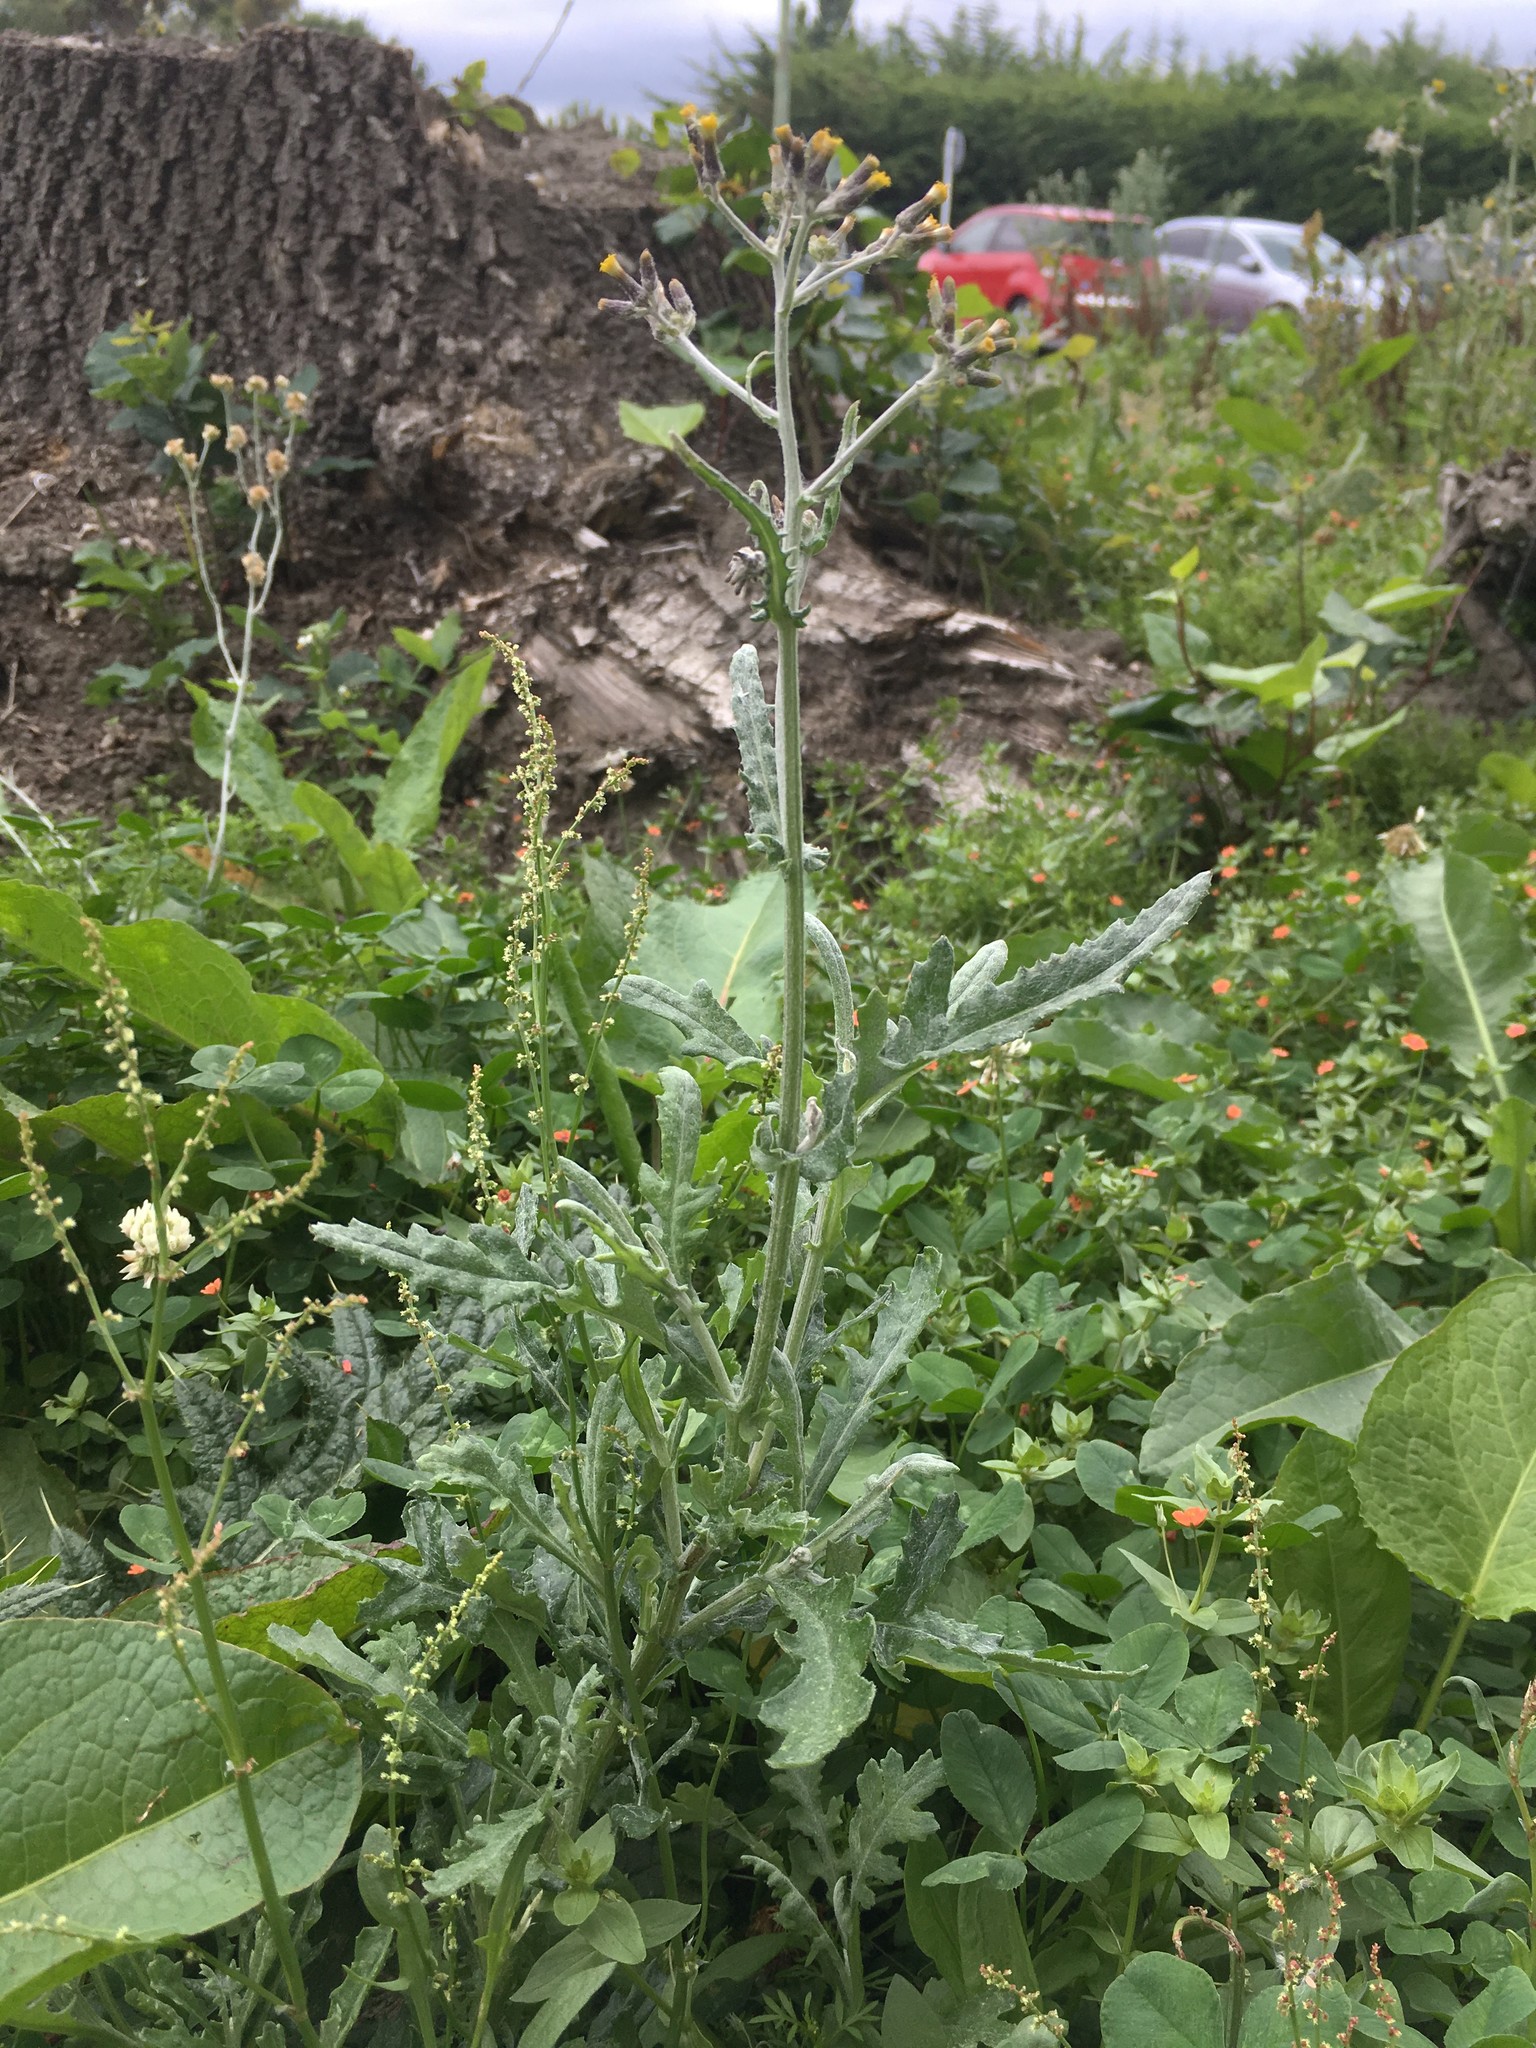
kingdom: Plantae
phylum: Tracheophyta
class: Magnoliopsida
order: Asterales
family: Asteraceae
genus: Senecio
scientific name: Senecio glomeratus
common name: Cutleaf burnweed
